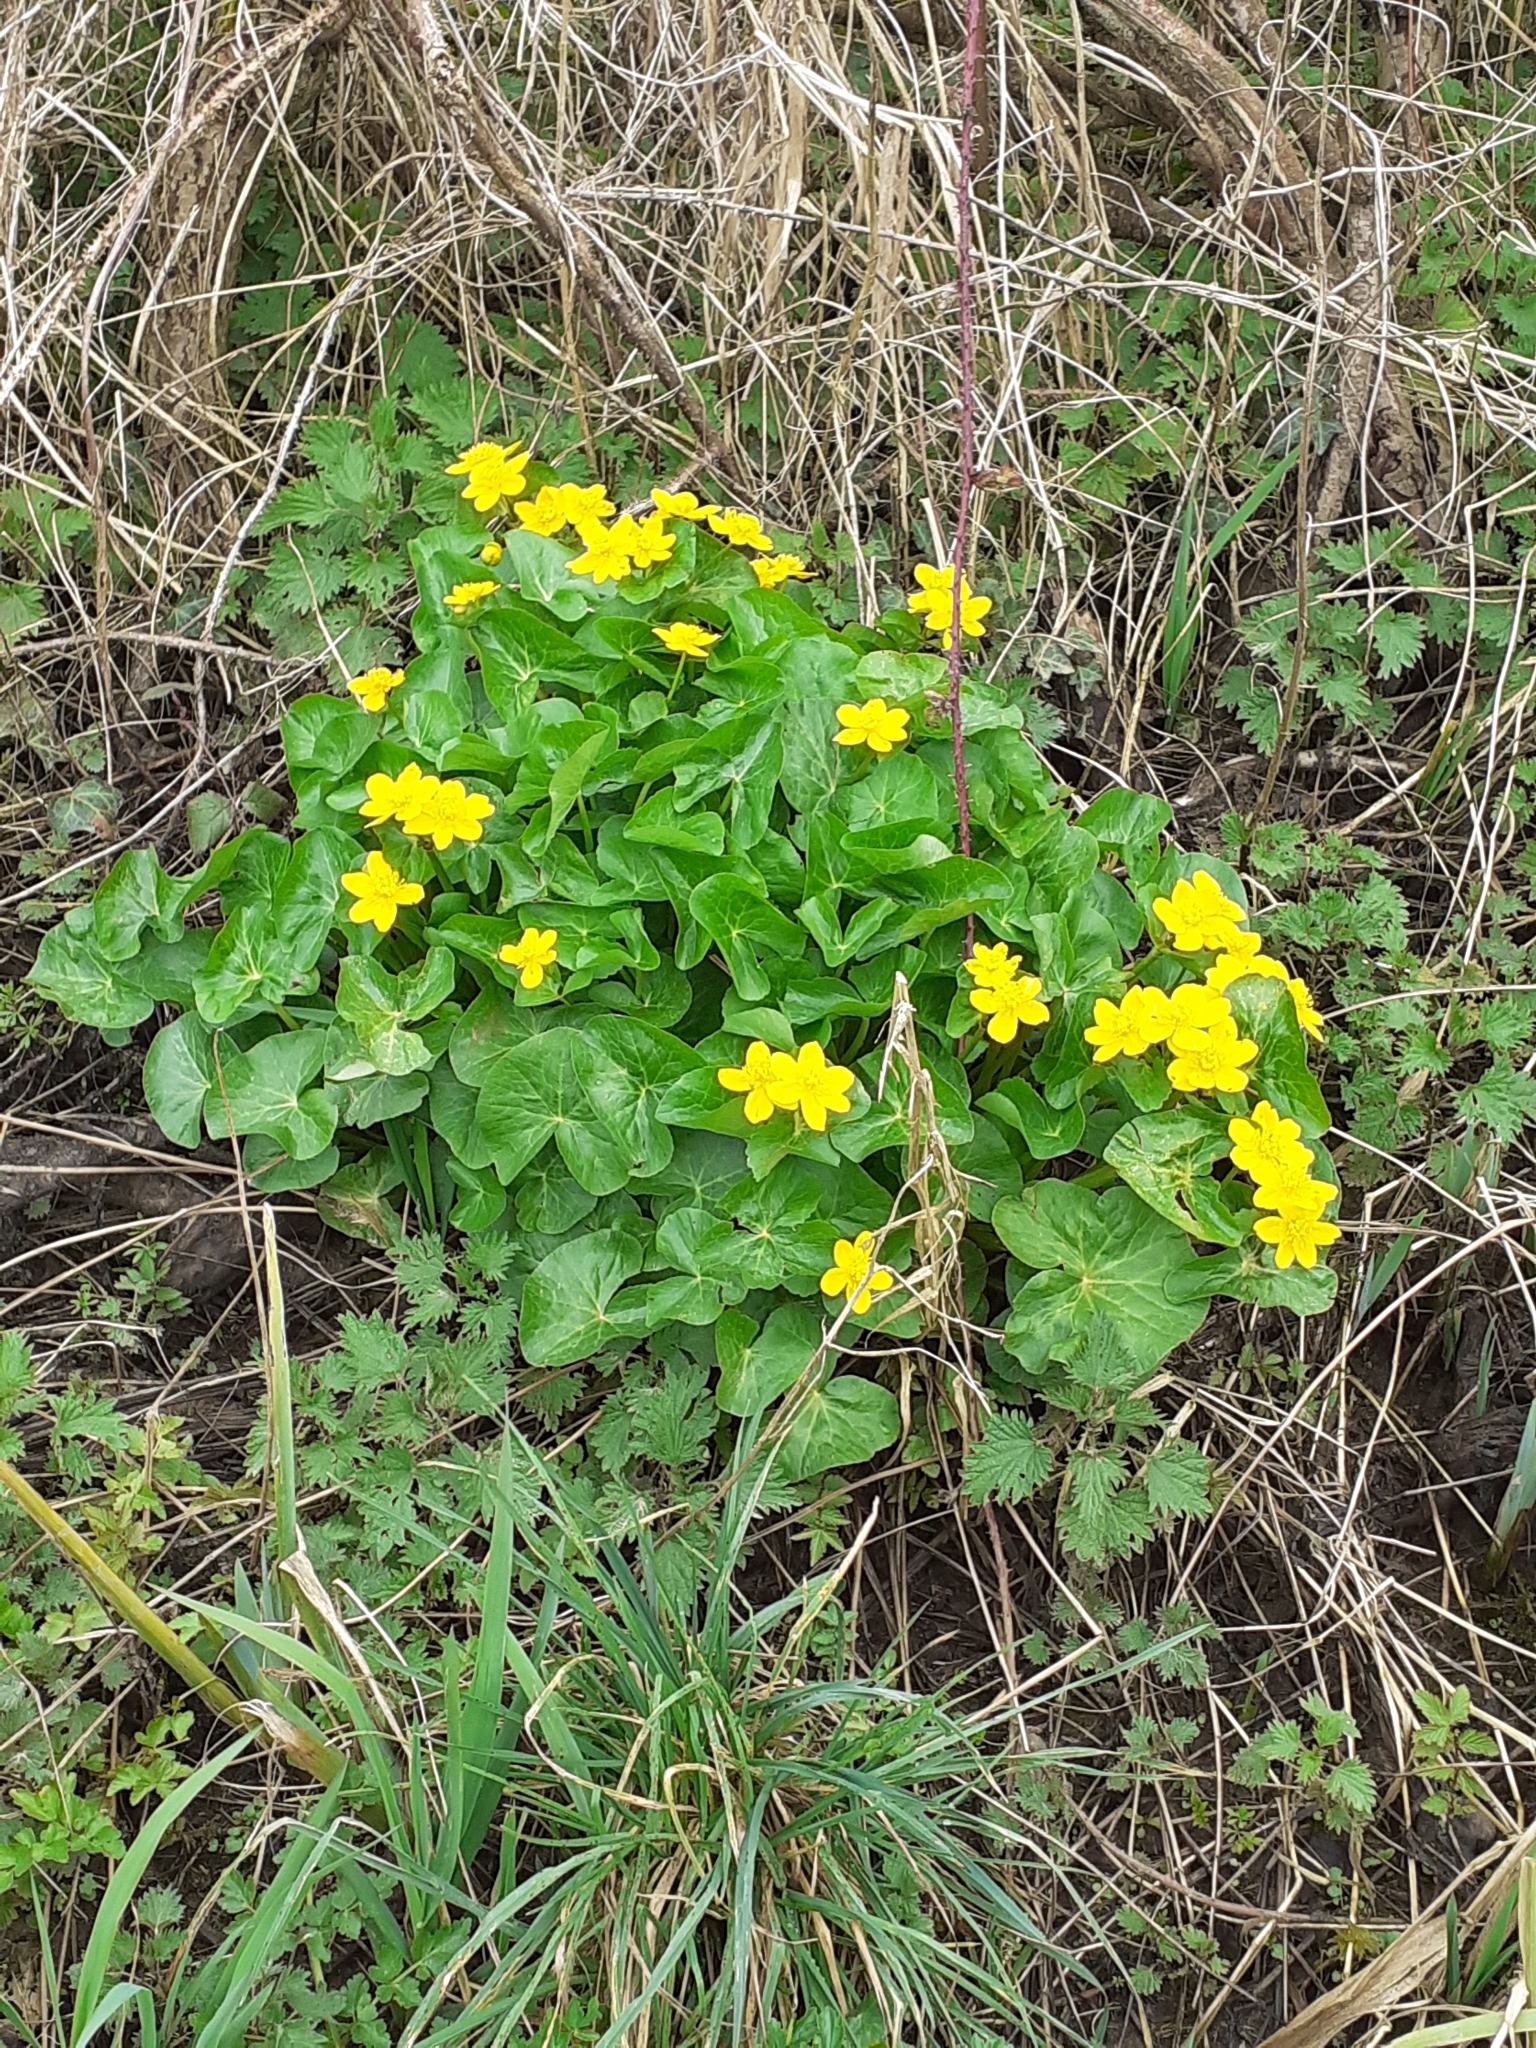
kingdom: Plantae
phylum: Tracheophyta
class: Magnoliopsida
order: Ranunculales
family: Ranunculaceae
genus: Caltha
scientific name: Caltha palustris
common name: Marsh marigold
